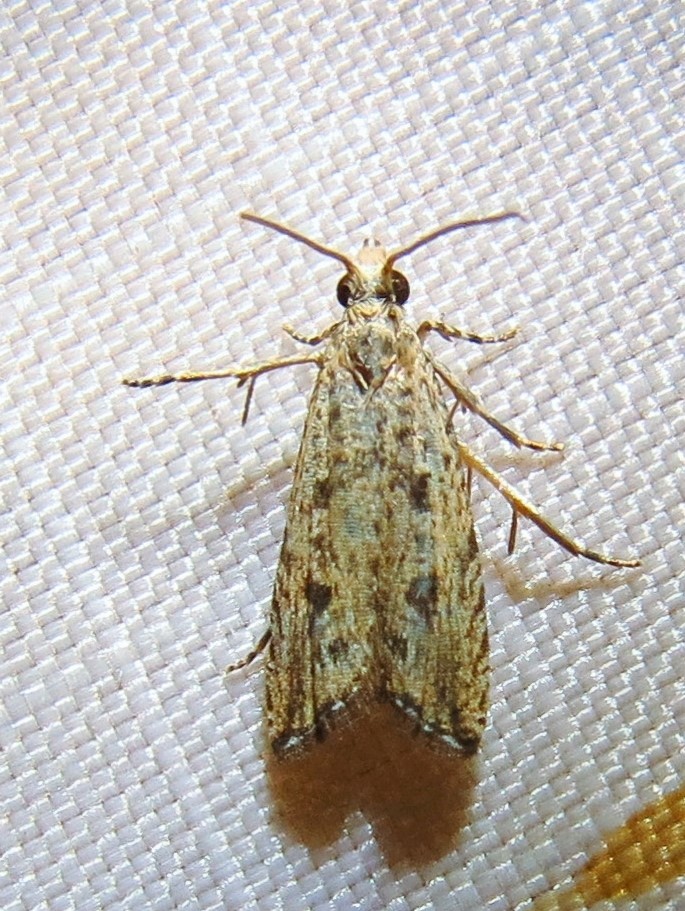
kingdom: Animalia
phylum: Arthropoda
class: Insecta
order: Lepidoptera
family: Tortricidae
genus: Bactra
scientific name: Bactra verutana
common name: Javelin moth
